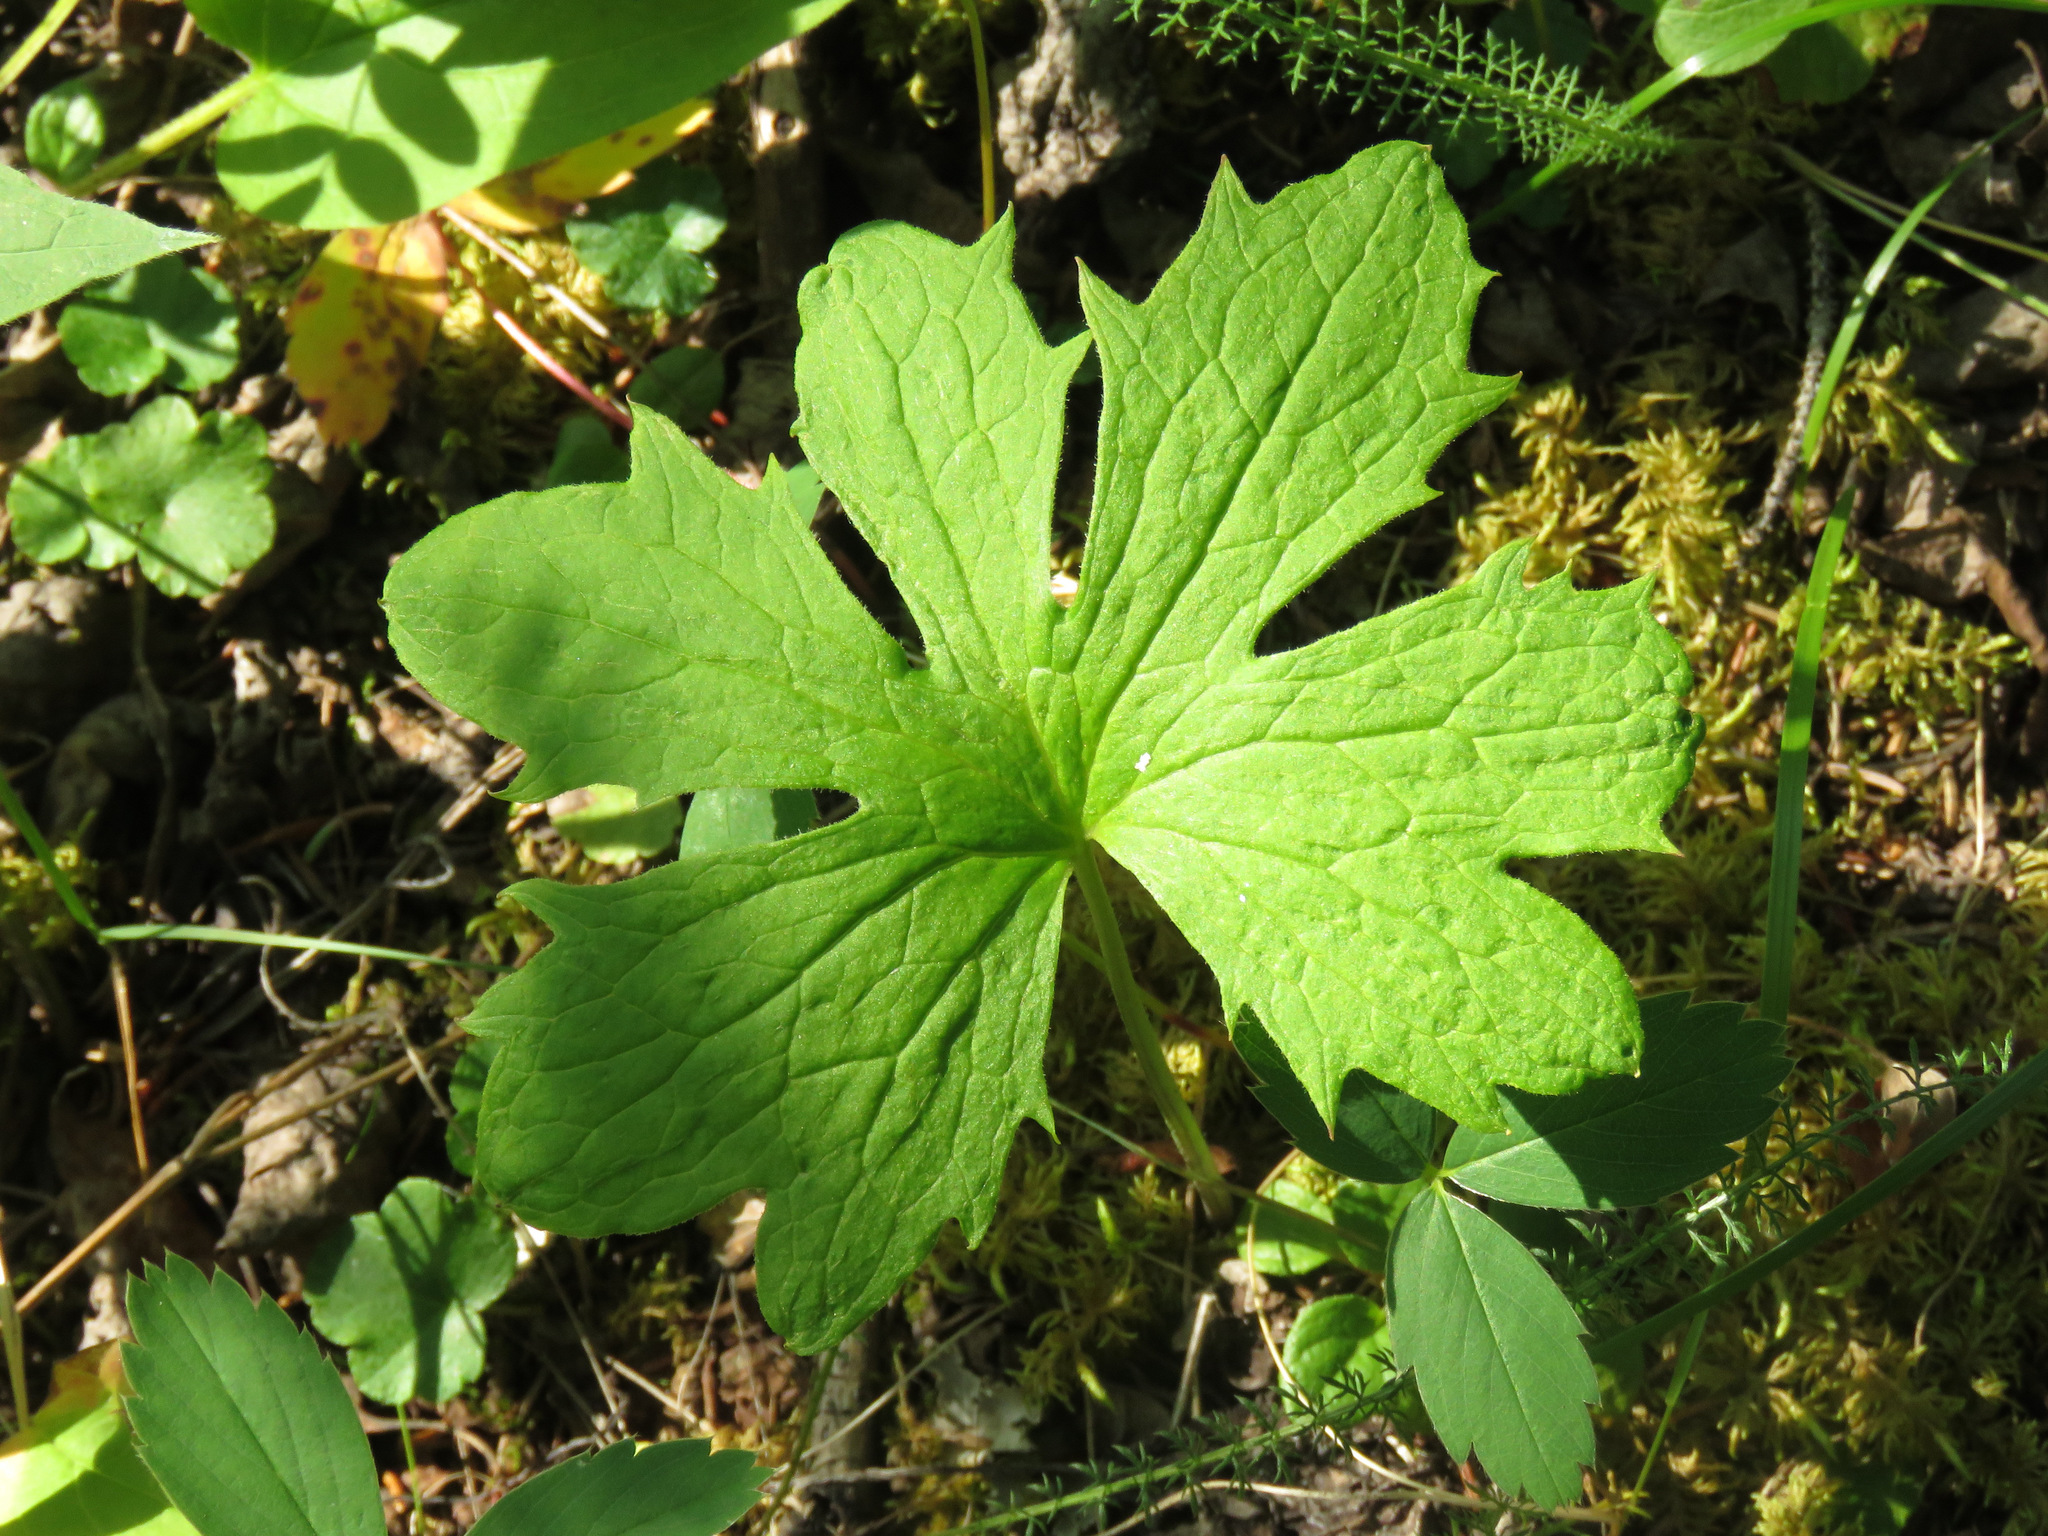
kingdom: Plantae
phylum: Tracheophyta
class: Magnoliopsida
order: Asterales
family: Asteraceae
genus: Petasites
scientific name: Petasites frigidus
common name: Arctic butterbur
